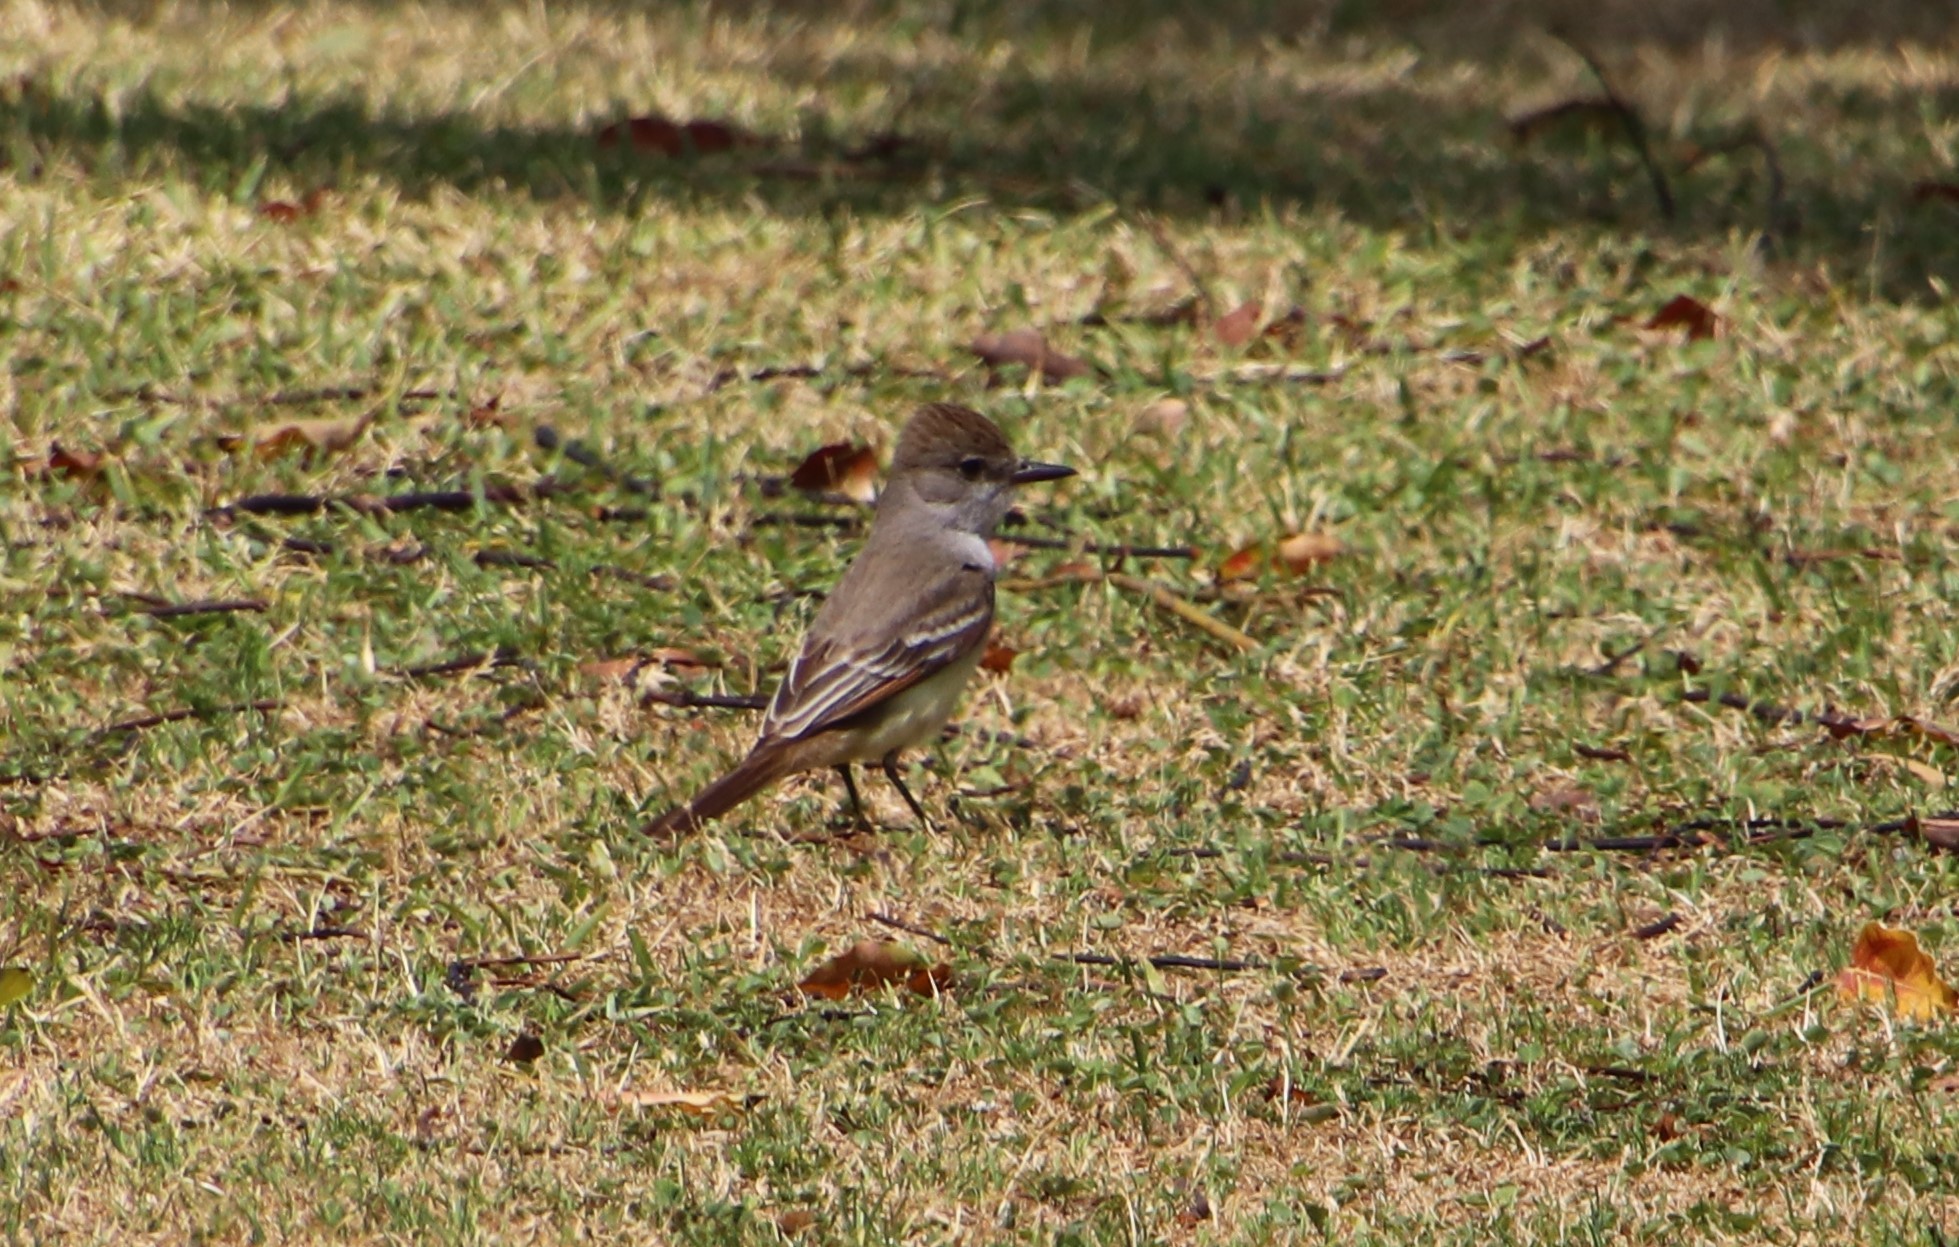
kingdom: Animalia
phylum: Chordata
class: Aves
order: Passeriformes
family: Tyrannidae
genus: Myiarchus
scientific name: Myiarchus cinerascens
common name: Ash-throated flycatcher
